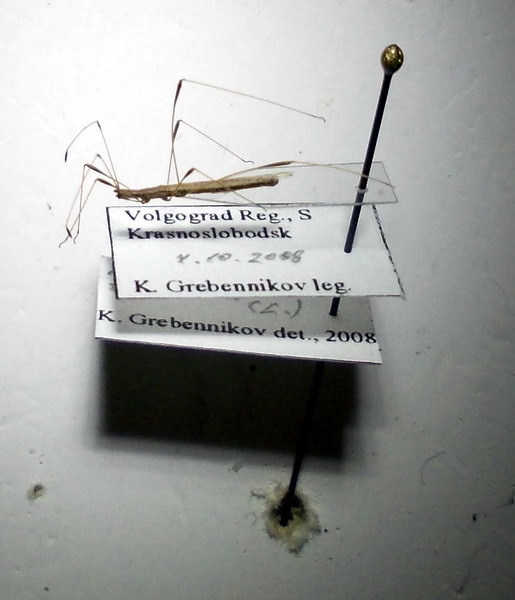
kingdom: Animalia
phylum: Arthropoda
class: Insecta
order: Hemiptera
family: Berytidae
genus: Neides
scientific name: Neides tipularius
